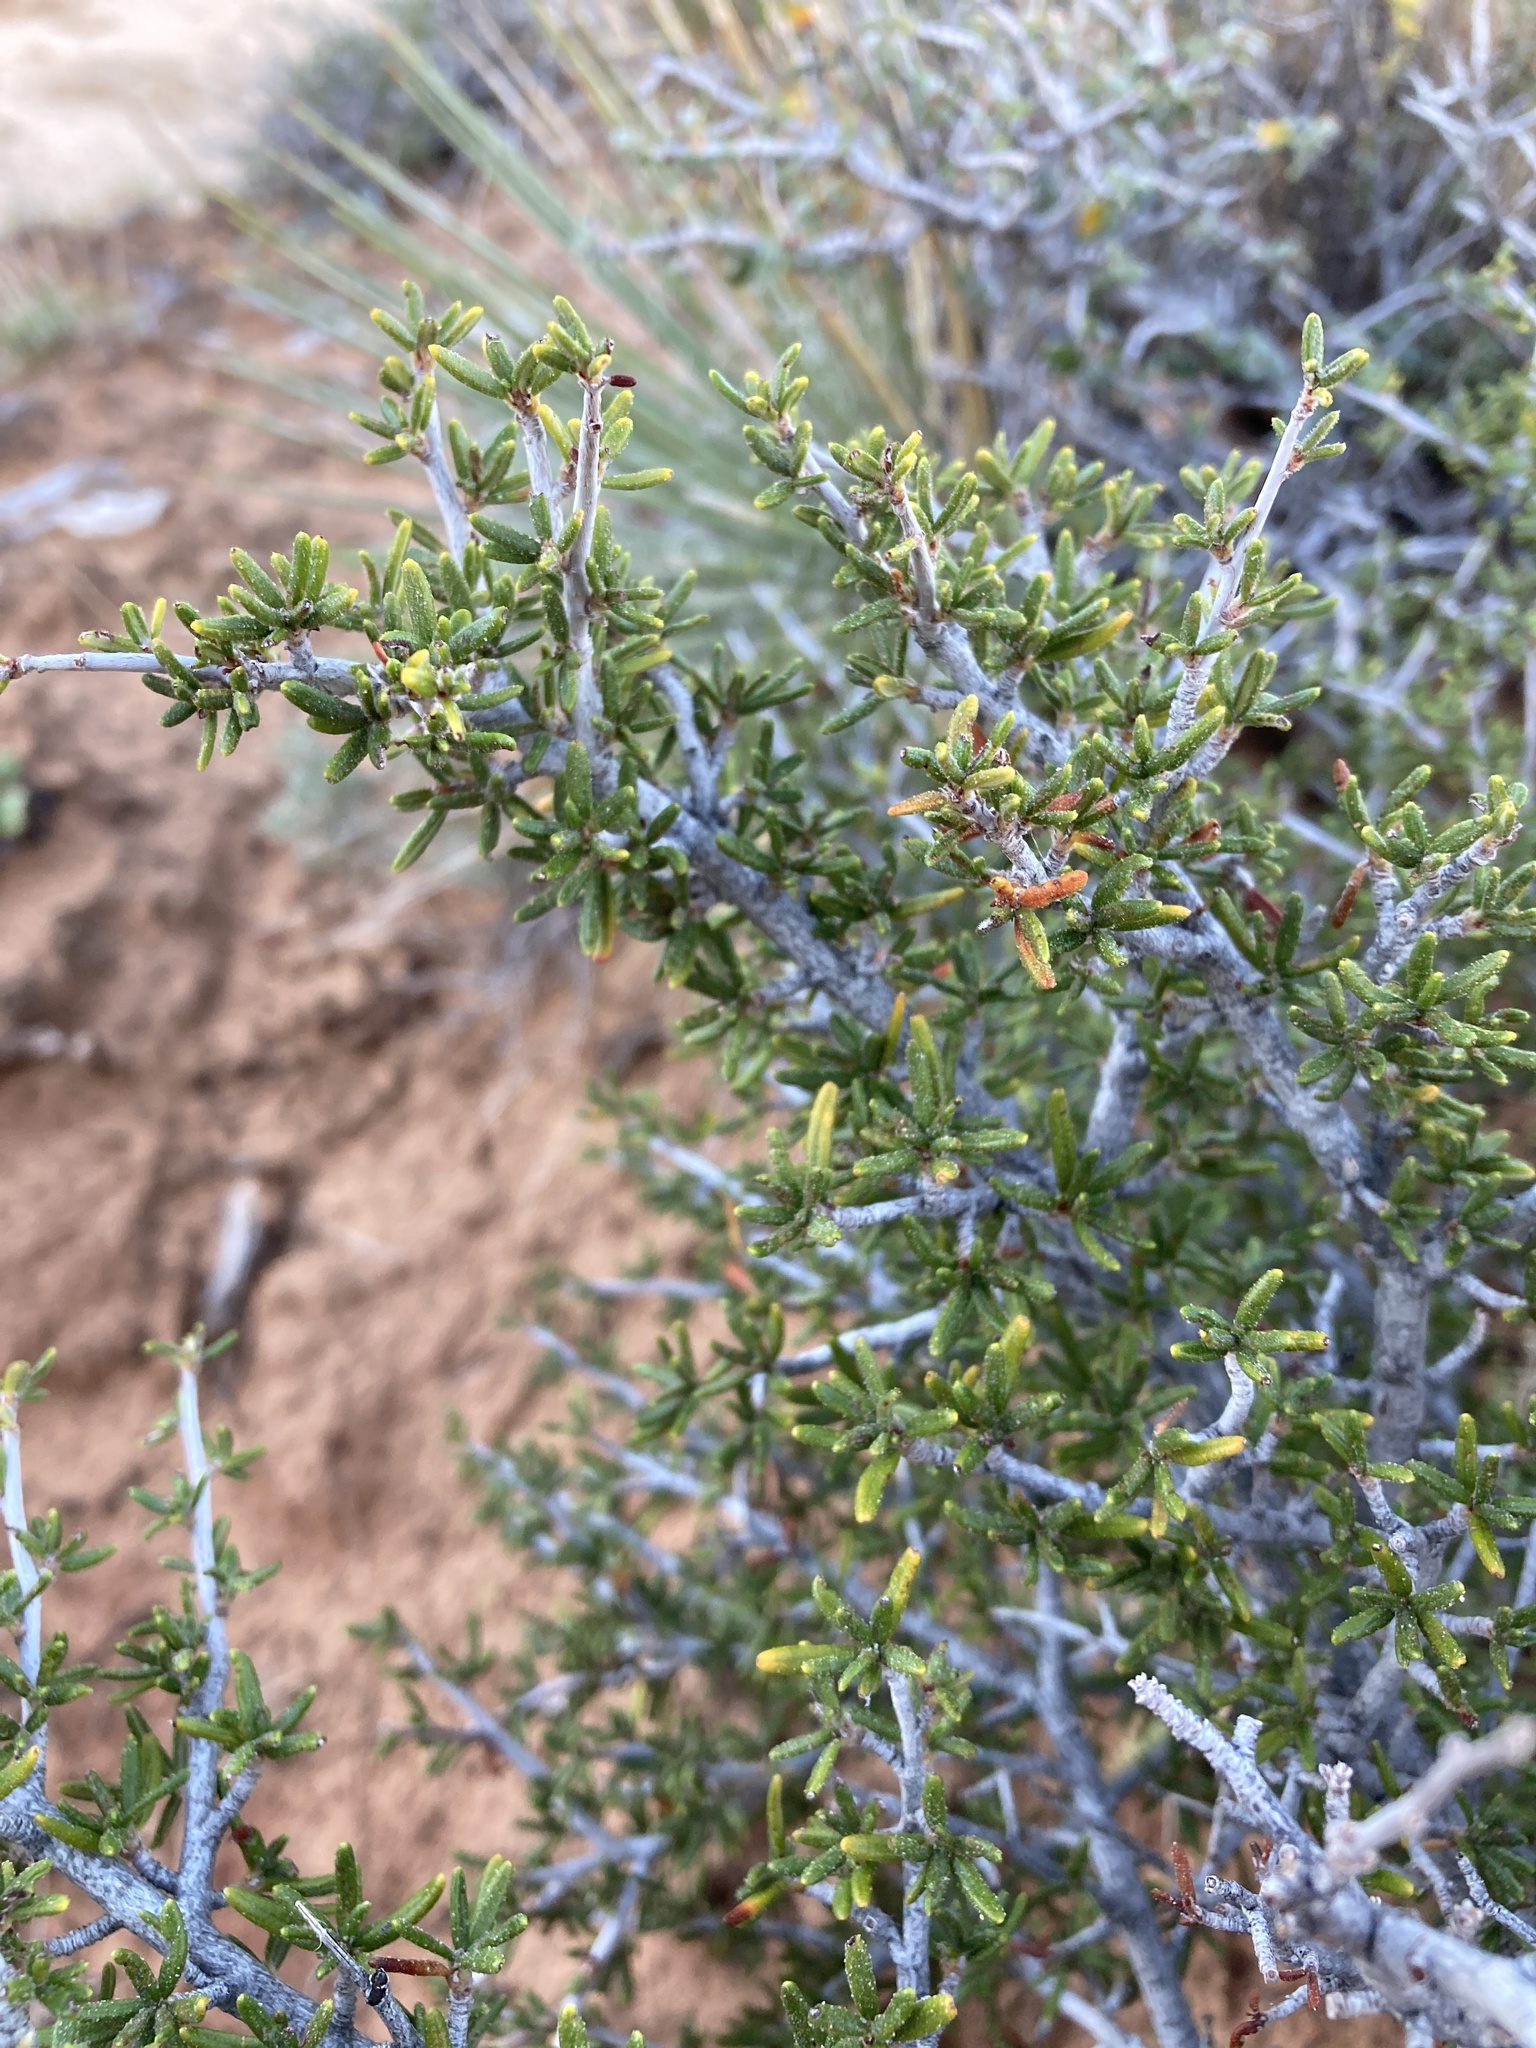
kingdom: Plantae
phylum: Tracheophyta
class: Magnoliopsida
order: Rosales
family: Rosaceae
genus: Cercocarpus
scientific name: Cercocarpus intricatus
